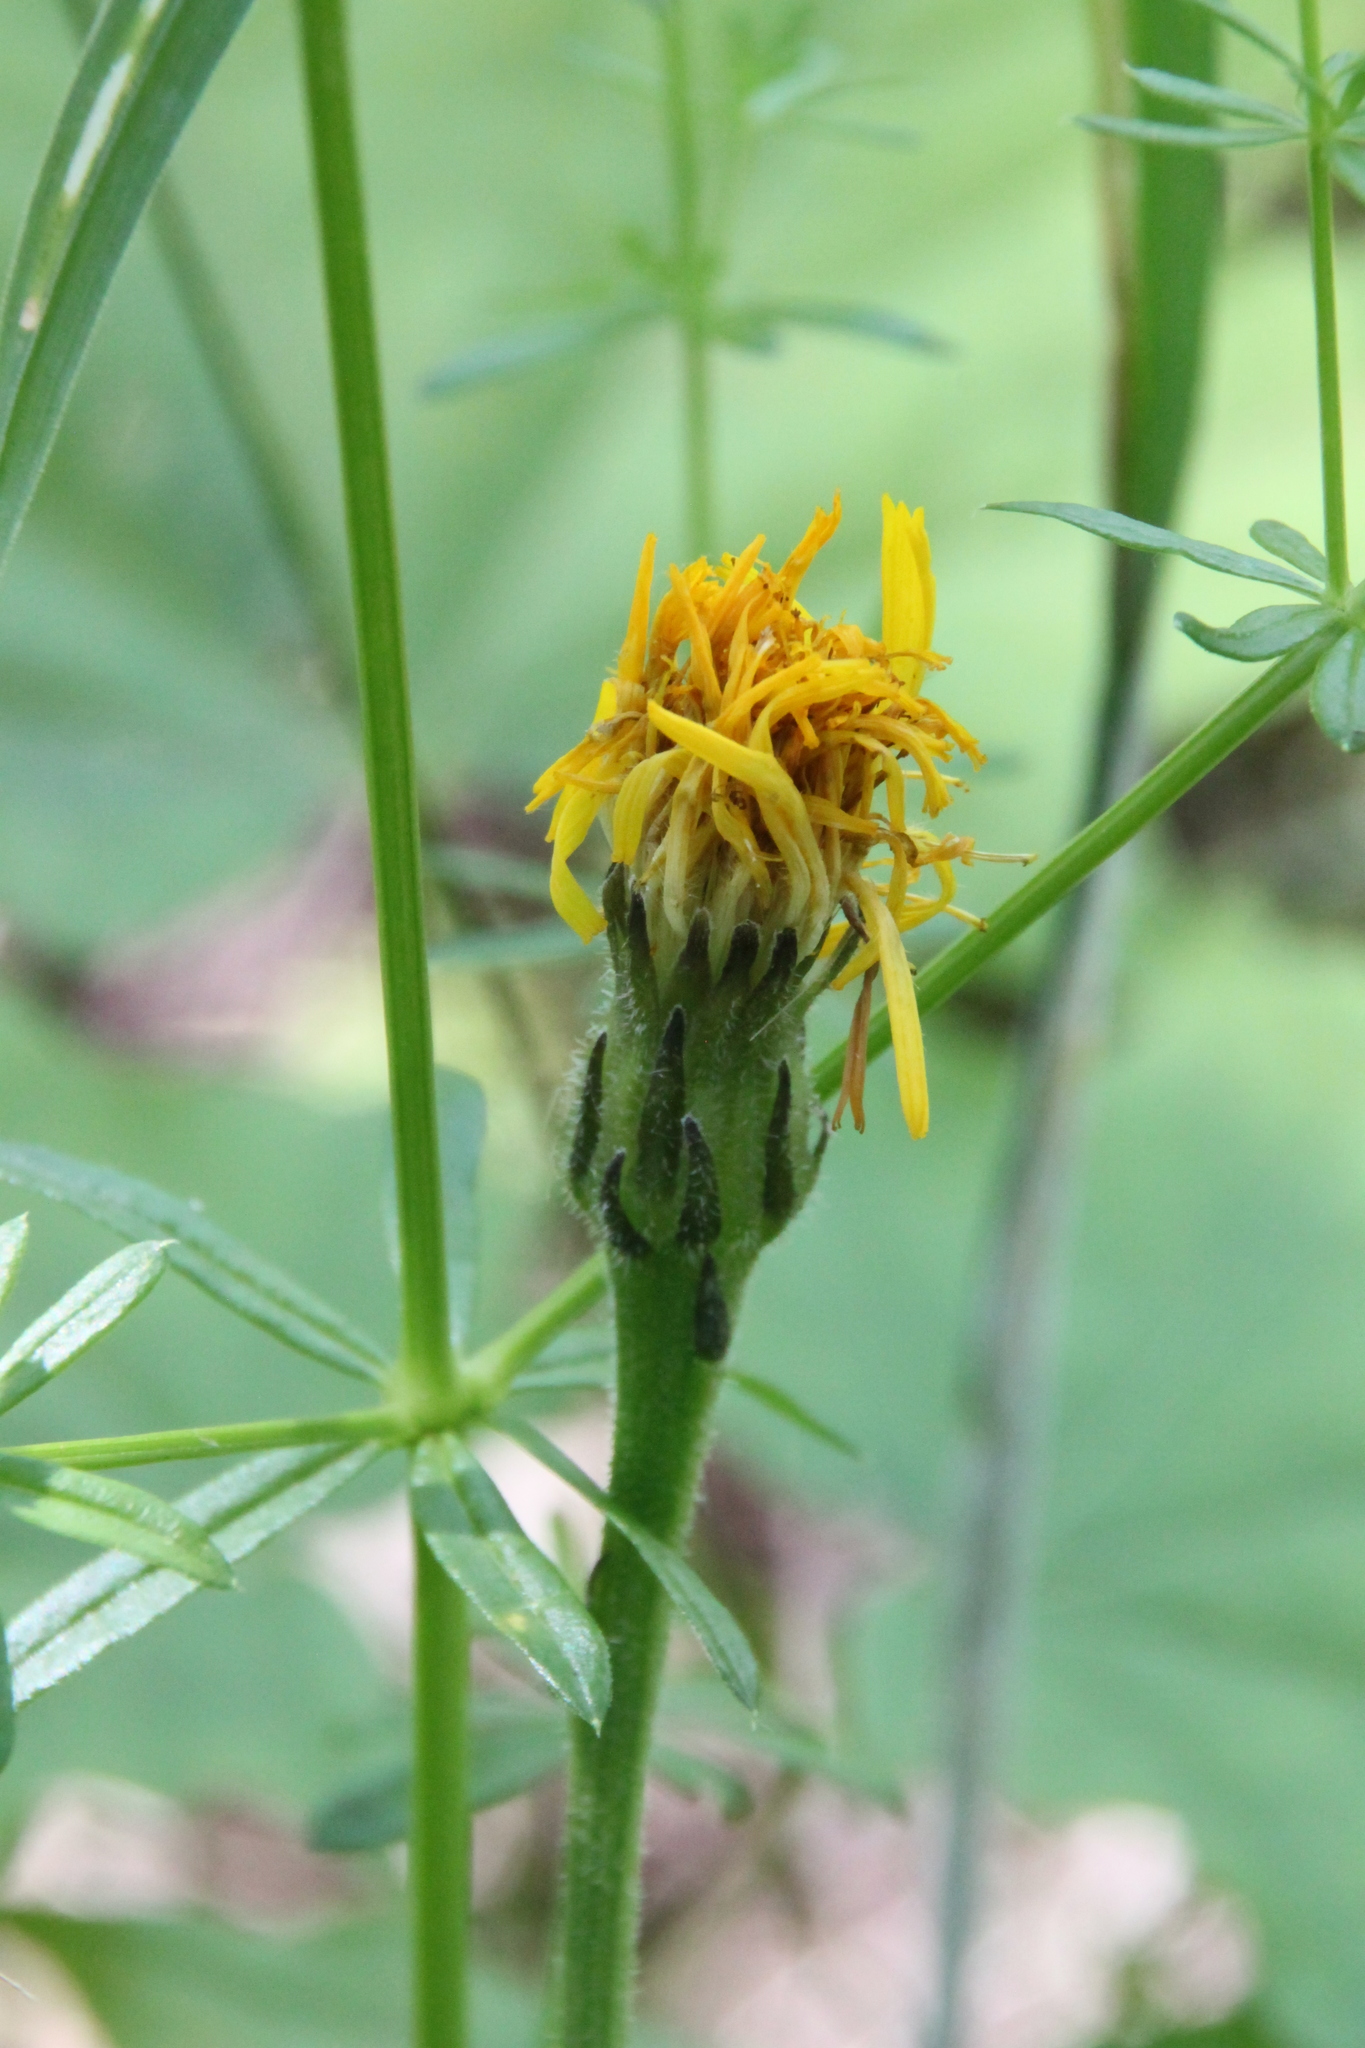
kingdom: Plantae
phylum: Tracheophyta
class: Magnoliopsida
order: Asterales
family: Asteraceae
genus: Leontodon
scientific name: Leontodon hispidus
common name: Rough hawkbit
